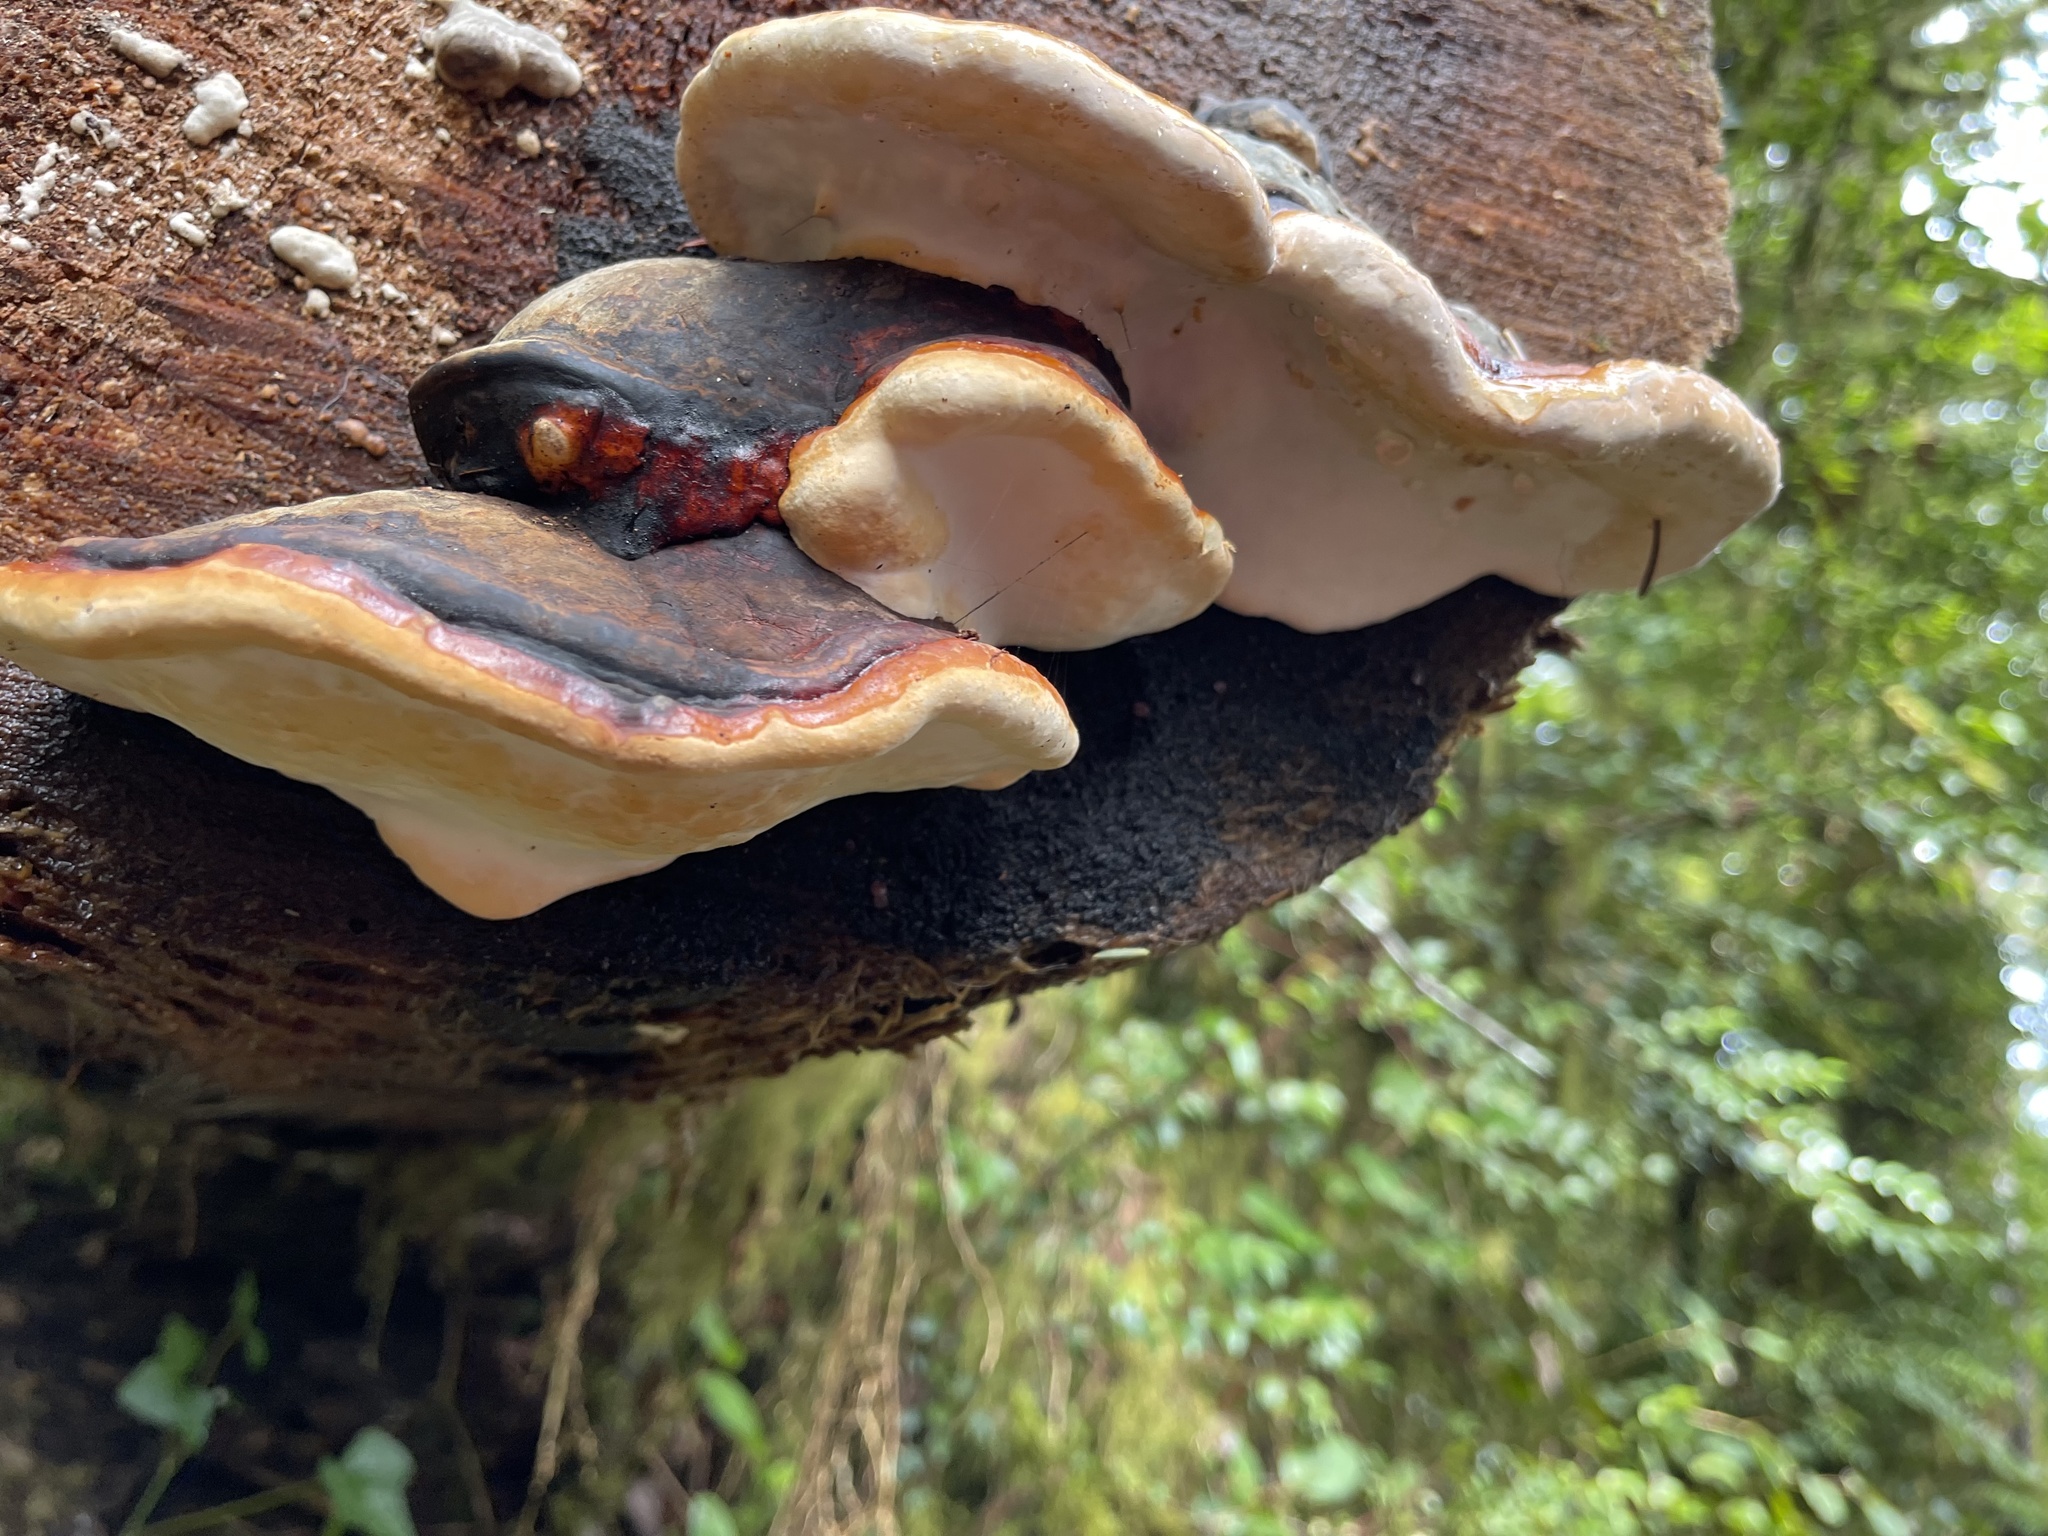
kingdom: Fungi
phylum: Basidiomycota
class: Agaricomycetes
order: Polyporales
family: Fomitopsidaceae
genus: Fomitopsis
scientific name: Fomitopsis mounceae
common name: Northern red belt
